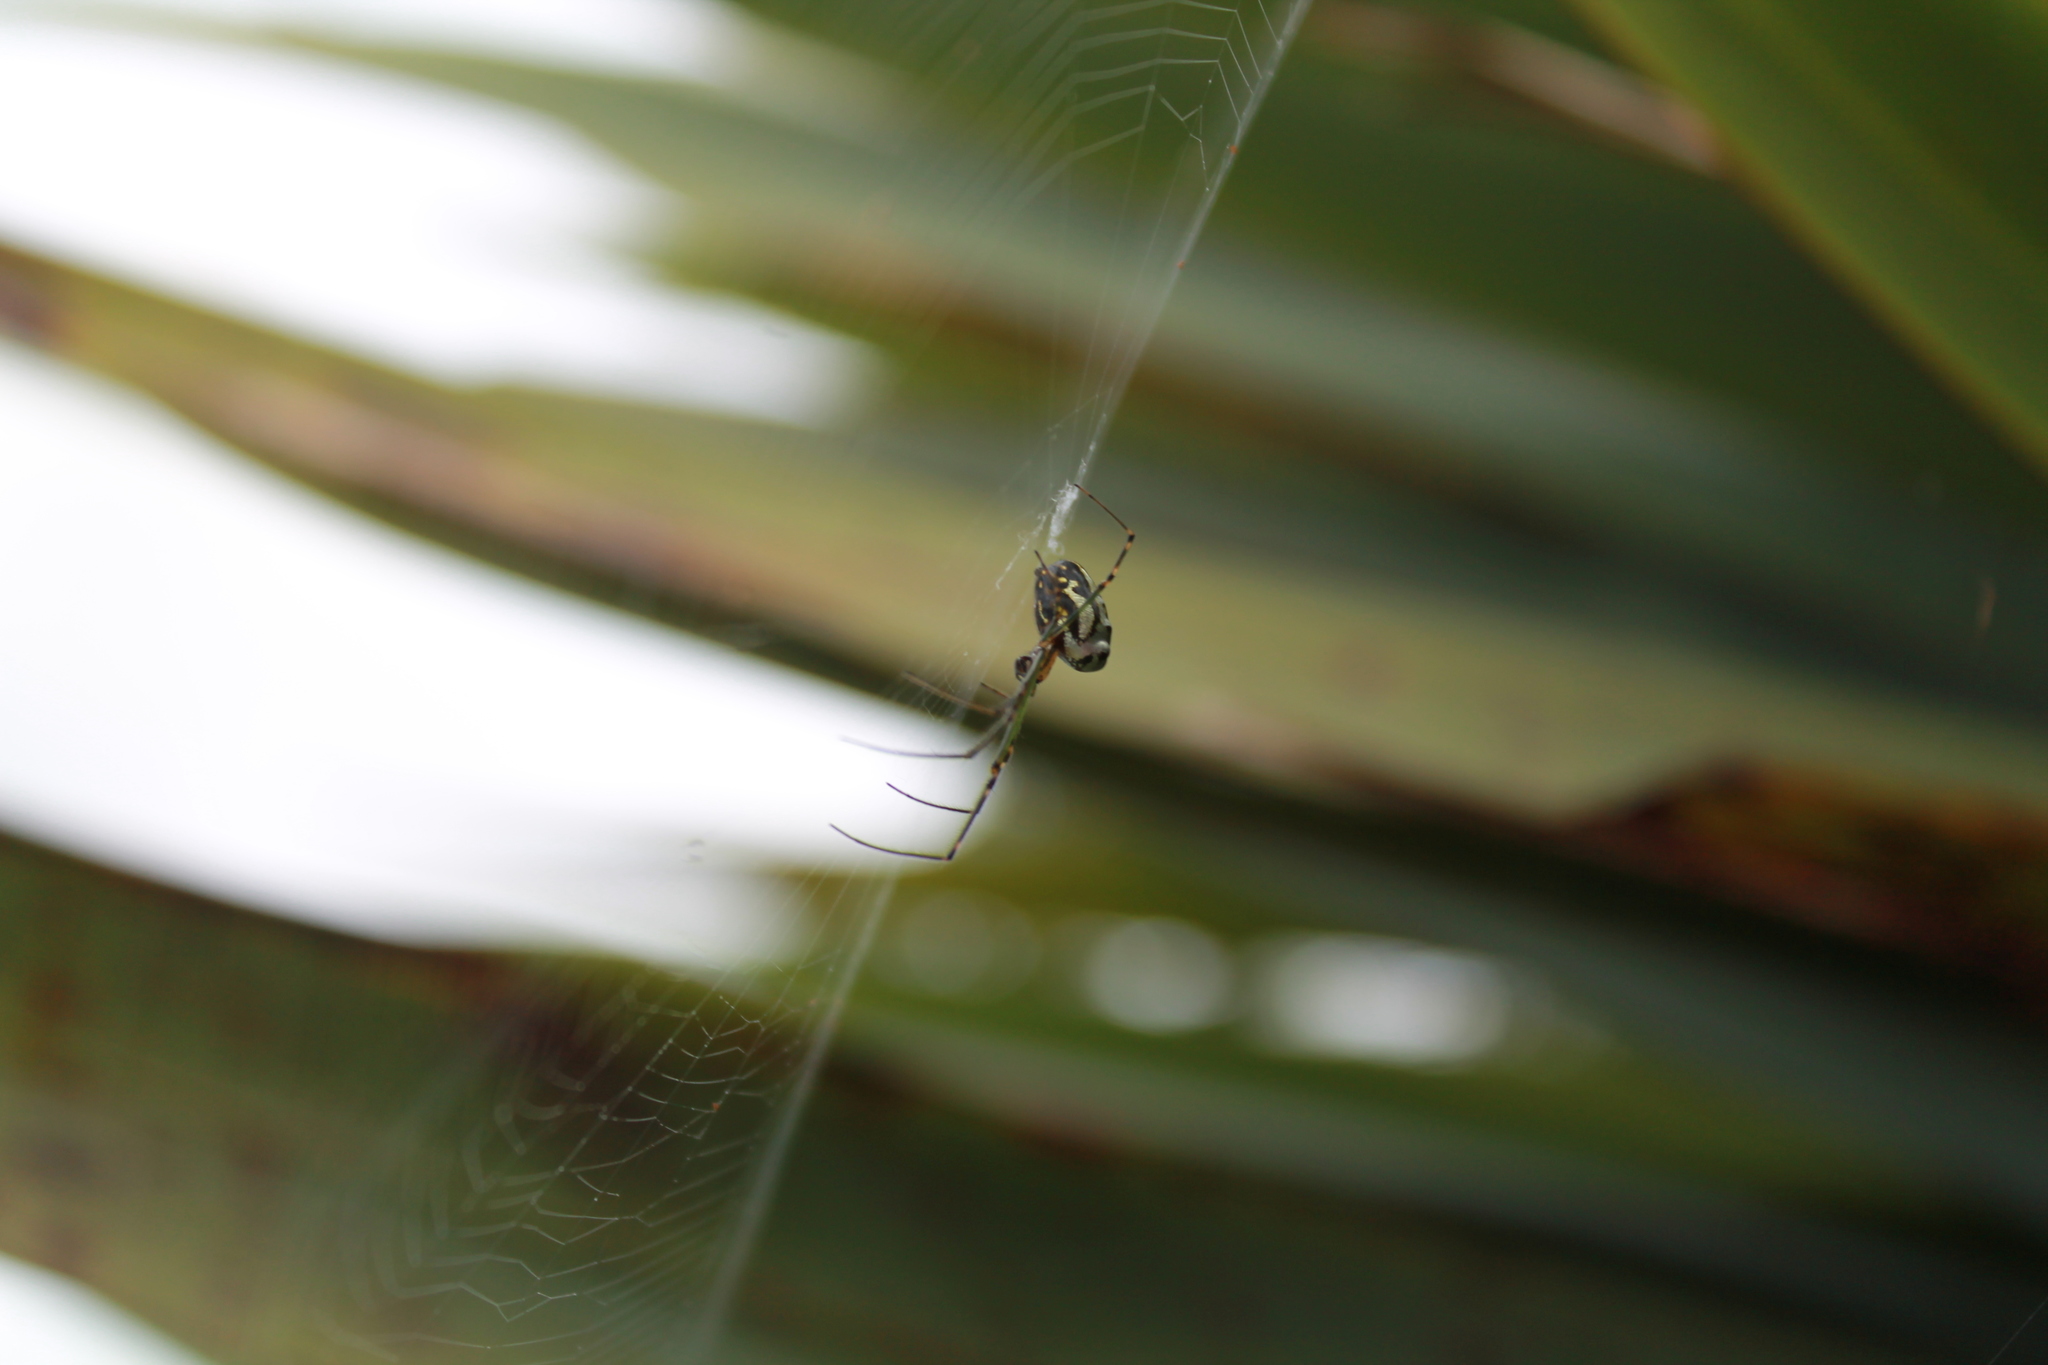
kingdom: Animalia
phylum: Arthropoda
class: Arachnida
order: Araneae
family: Tetragnathidae
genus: Leucauge
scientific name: Leucauge dromedaria
